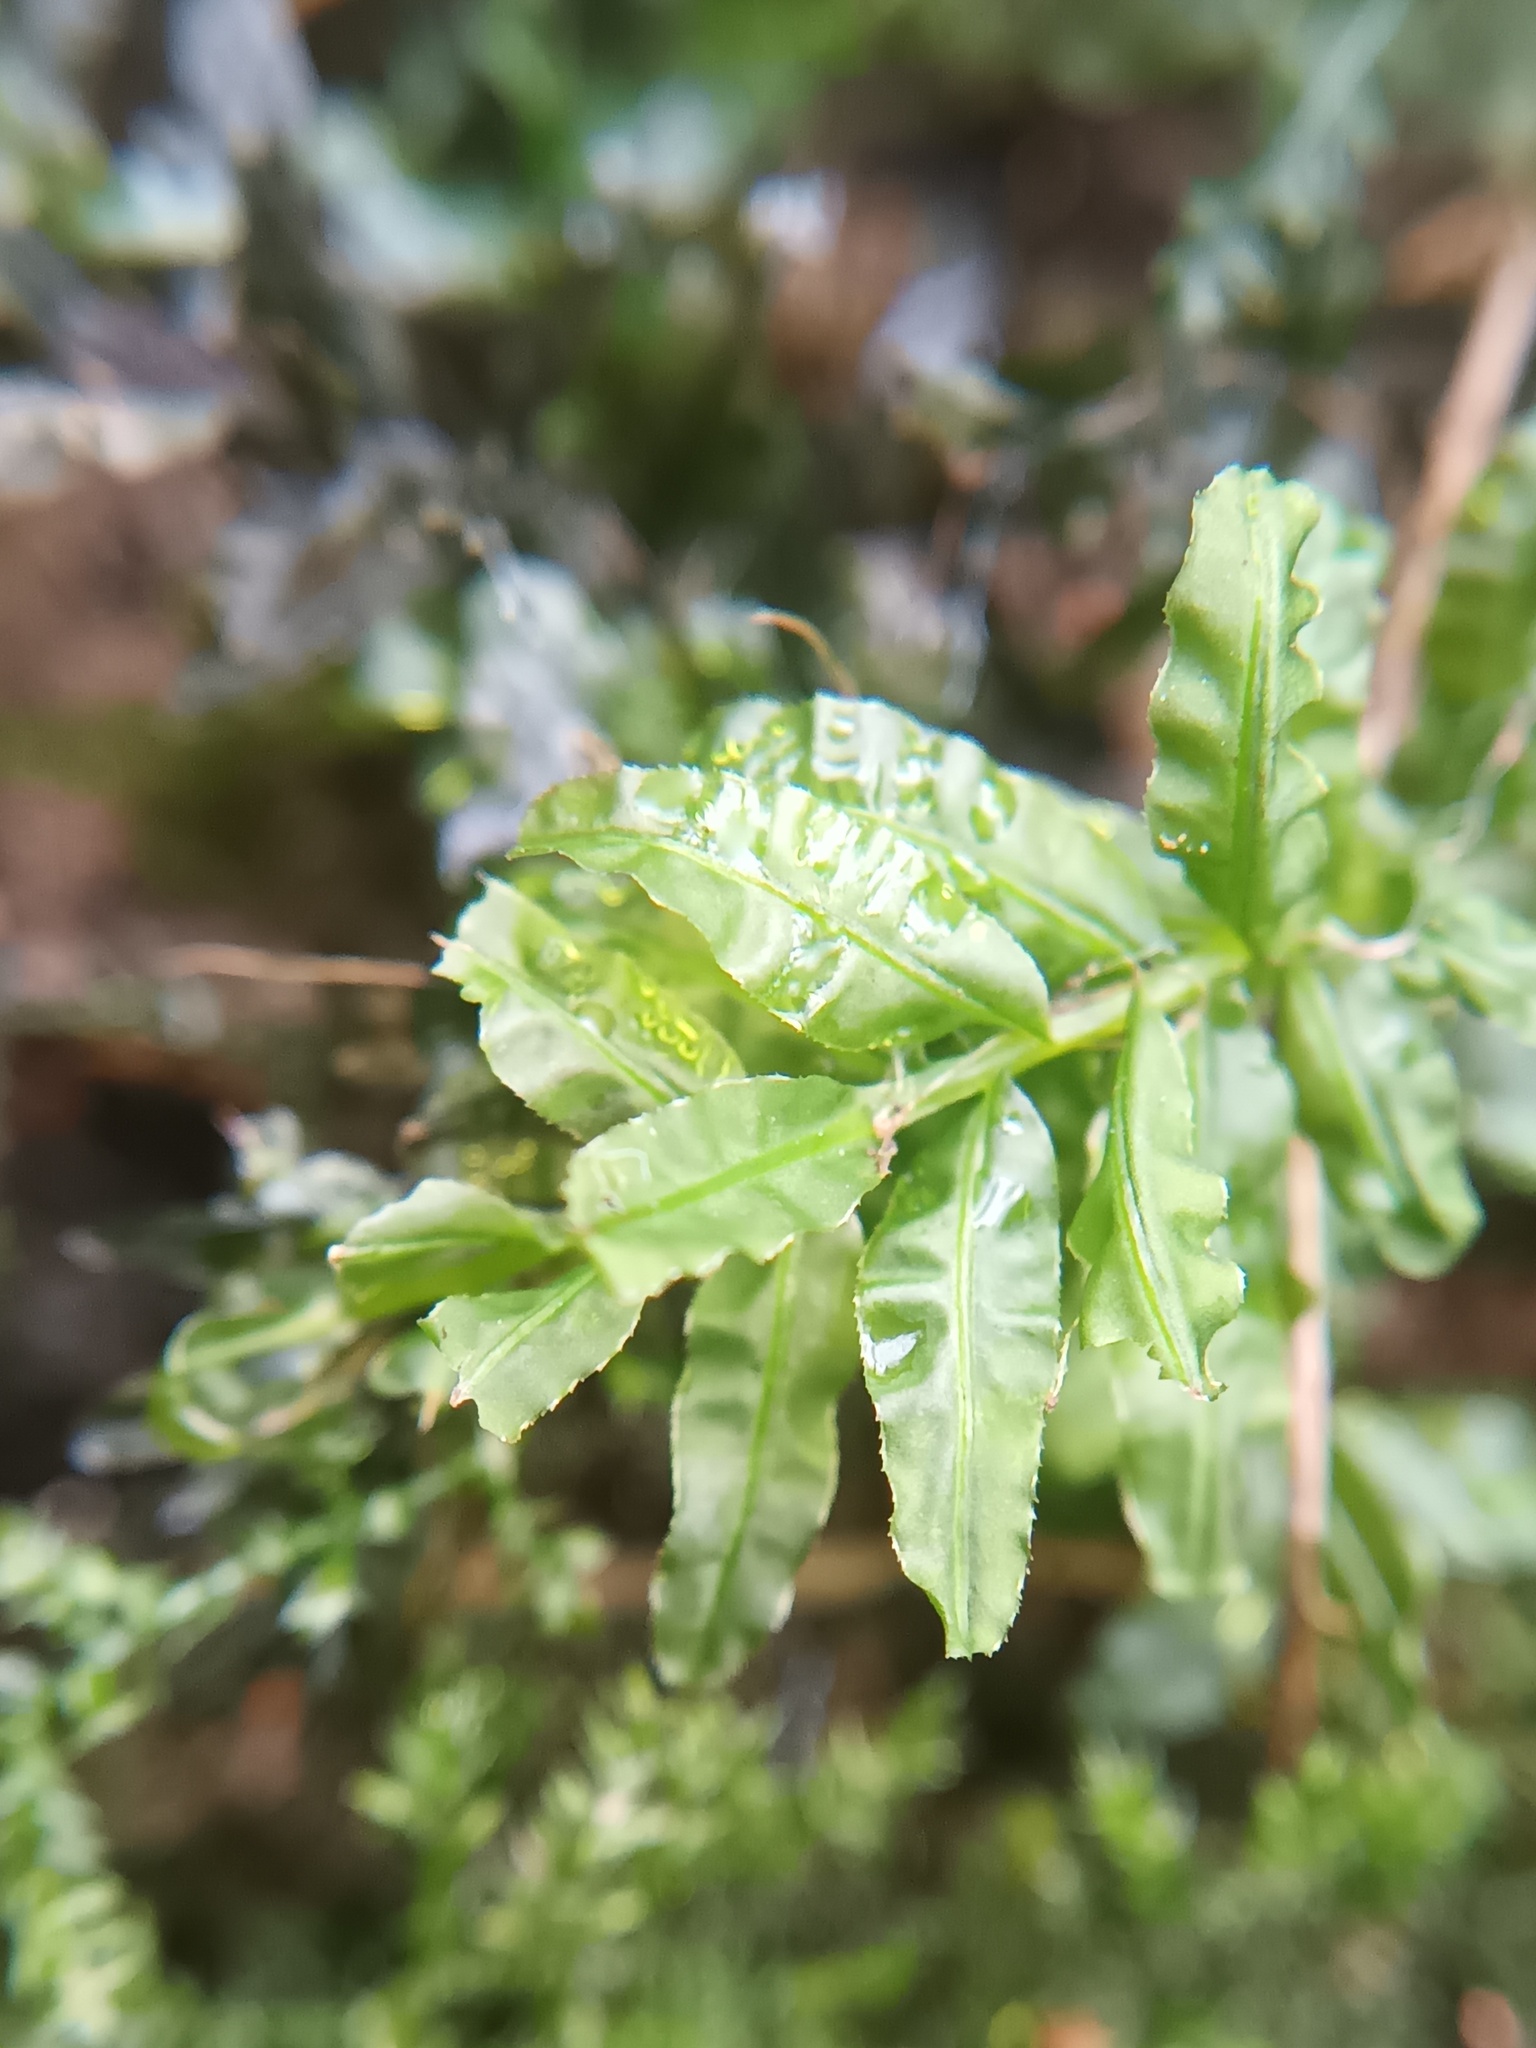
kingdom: Plantae
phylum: Bryophyta
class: Bryopsida
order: Bryales
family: Mniaceae
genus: Plagiomnium
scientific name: Plagiomnium undulatum
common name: Hart's-tongue thyme-moss
